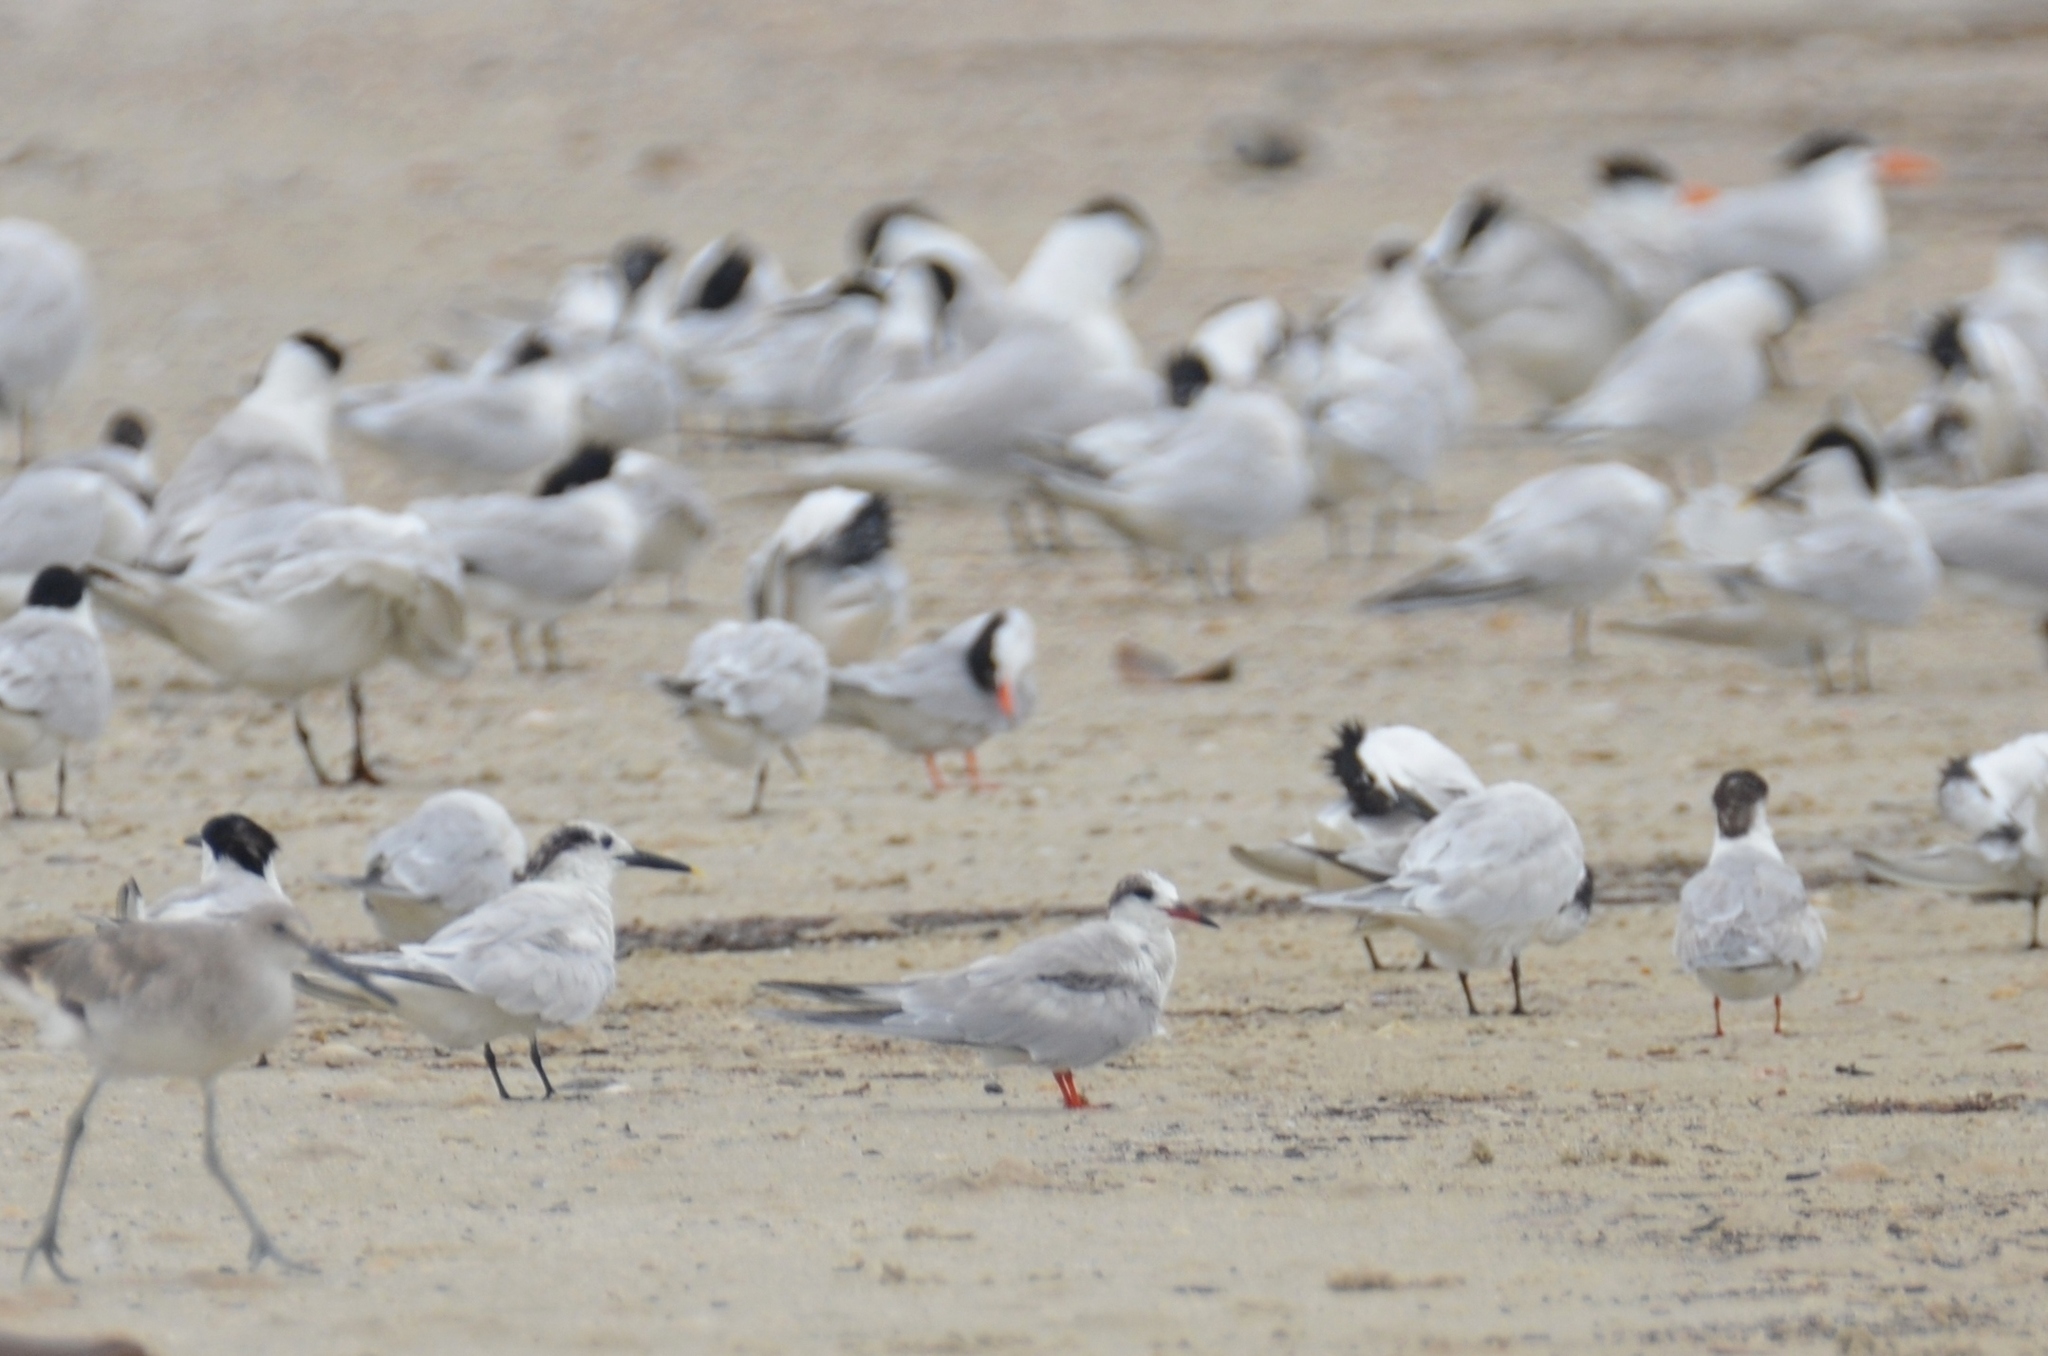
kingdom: Animalia
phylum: Chordata
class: Aves
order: Charadriiformes
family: Laridae
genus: Sterna
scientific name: Sterna hirundo
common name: Common tern
